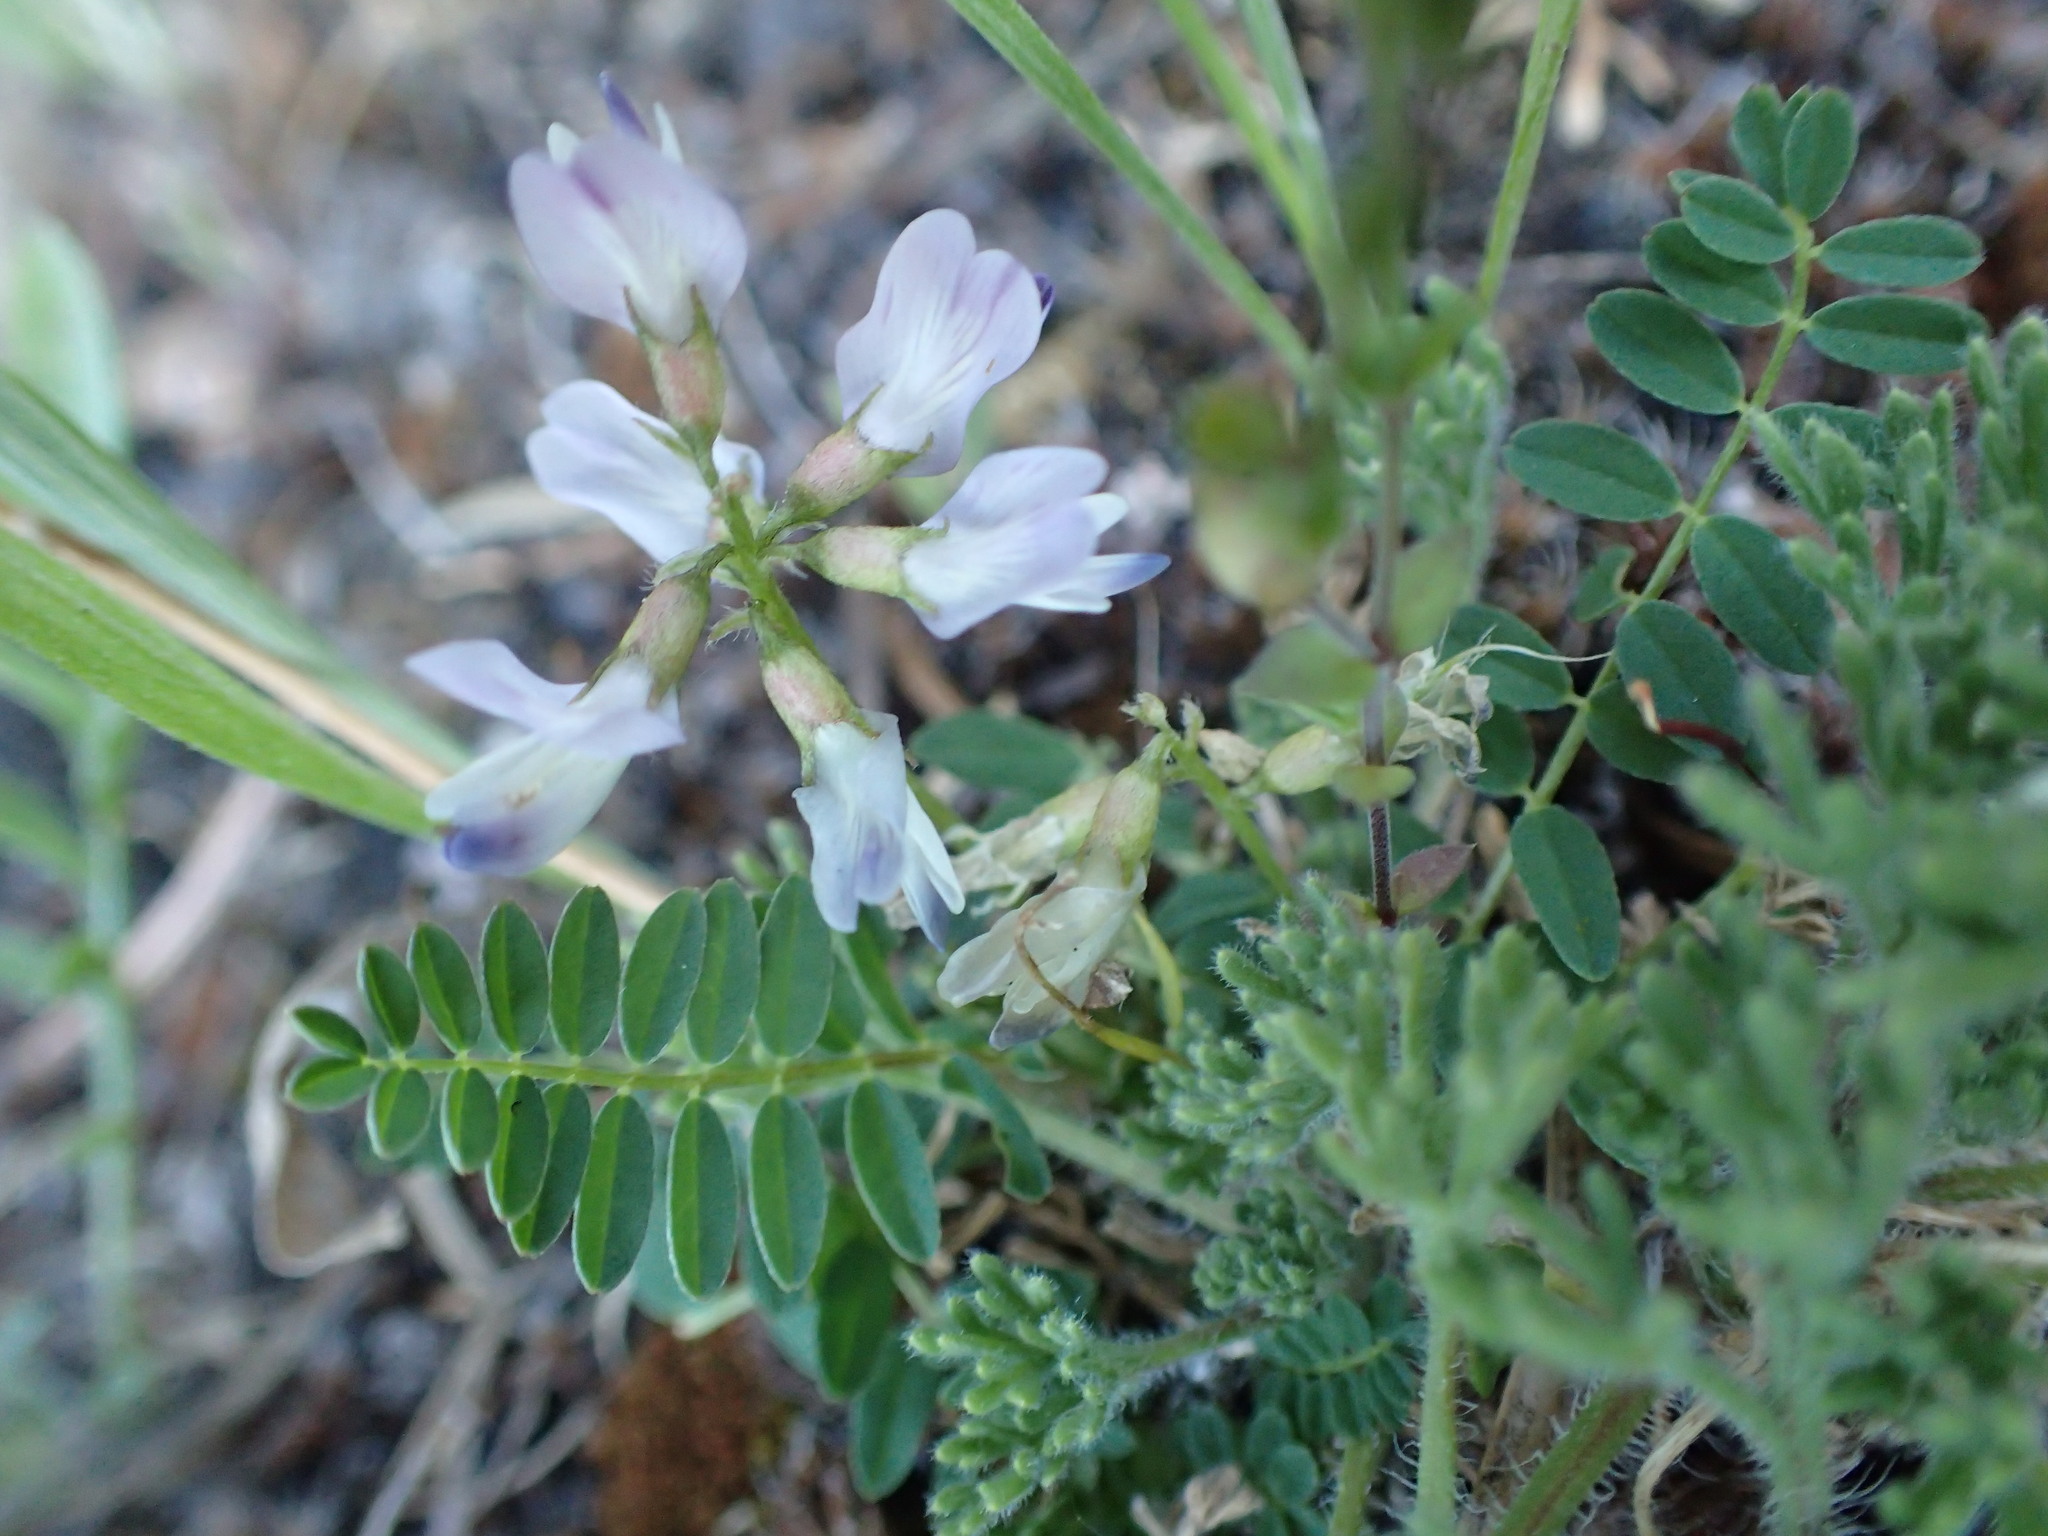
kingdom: Plantae
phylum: Tracheophyta
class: Magnoliopsida
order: Fabales
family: Fabaceae
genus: Astragalus
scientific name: Astragalus alpinus
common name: Alpine milk-vetch
